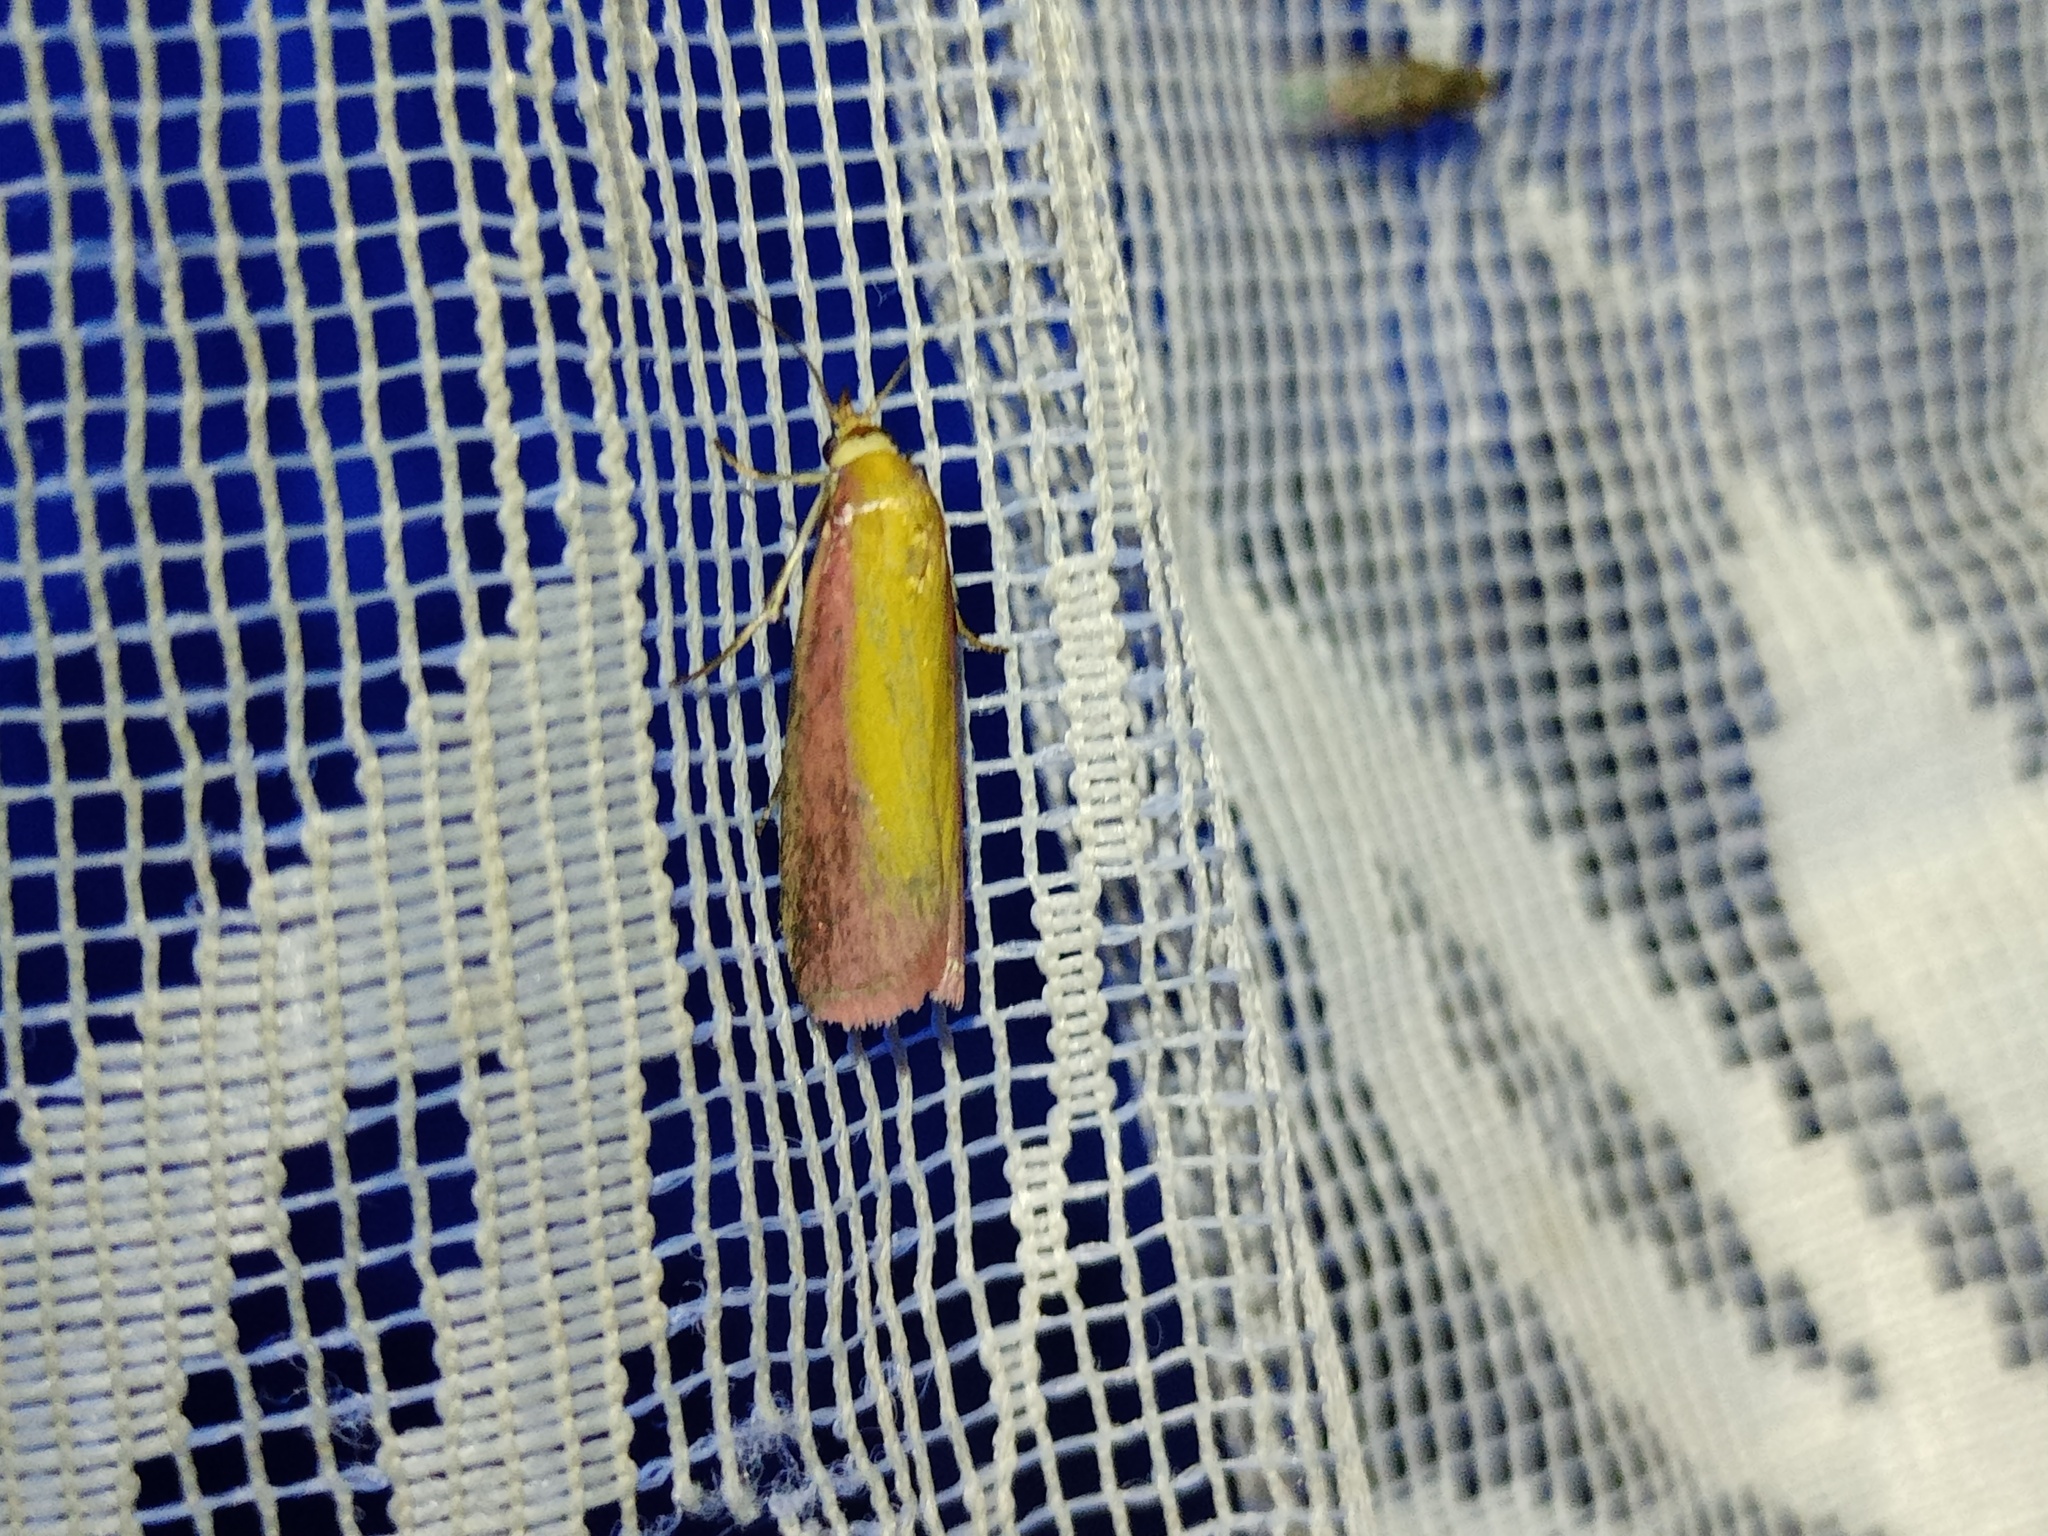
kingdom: Animalia
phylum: Arthropoda
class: Insecta
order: Lepidoptera
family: Pyralidae
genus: Oncocera
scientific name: Oncocera semirubella
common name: Rosy-striped knot-horn
